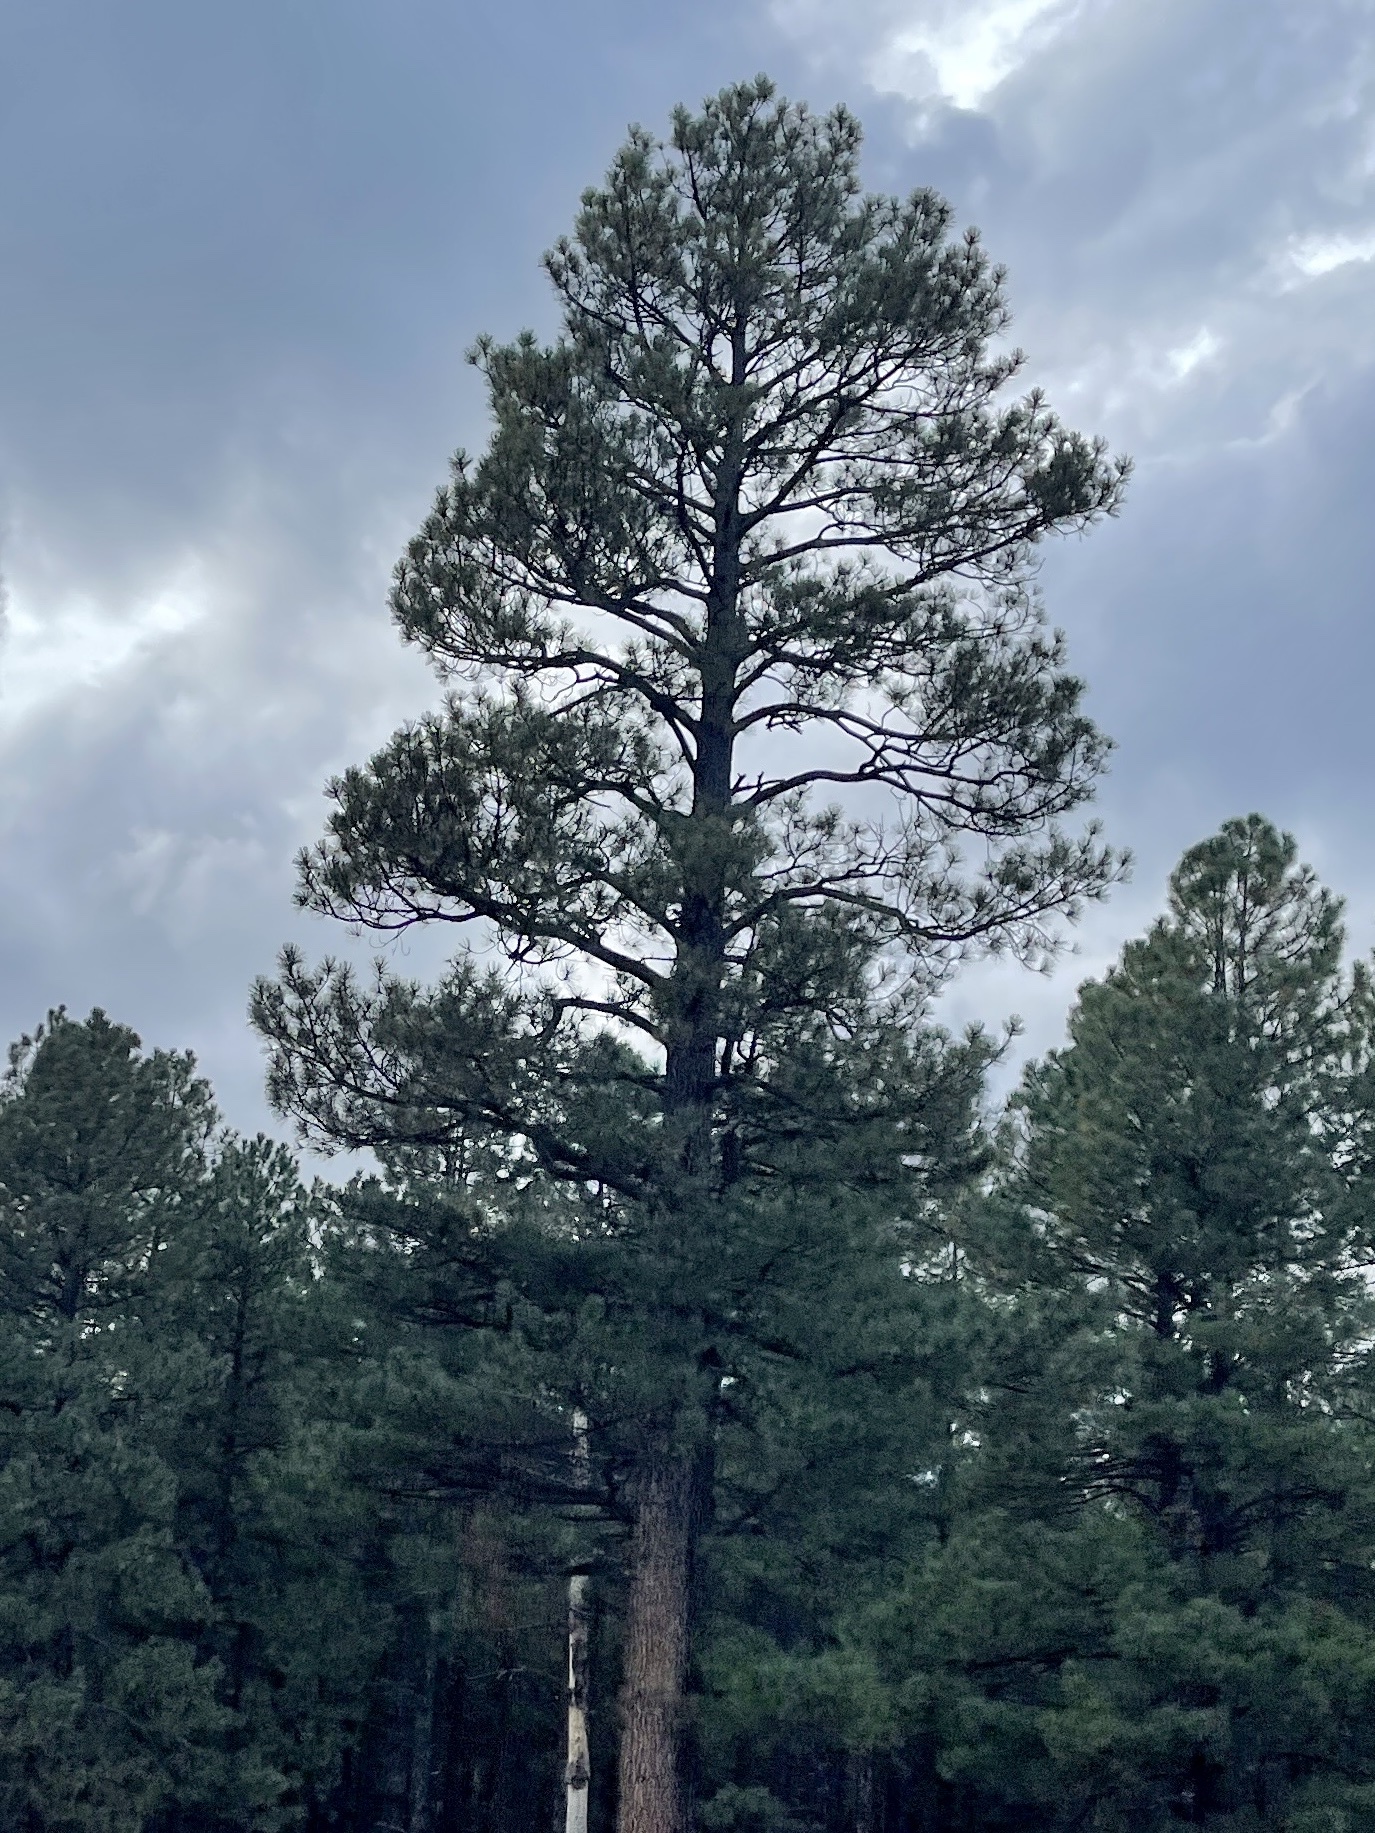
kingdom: Plantae
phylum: Tracheophyta
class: Pinopsida
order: Pinales
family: Pinaceae
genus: Pinus
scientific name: Pinus ponderosa
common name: Western yellow-pine
